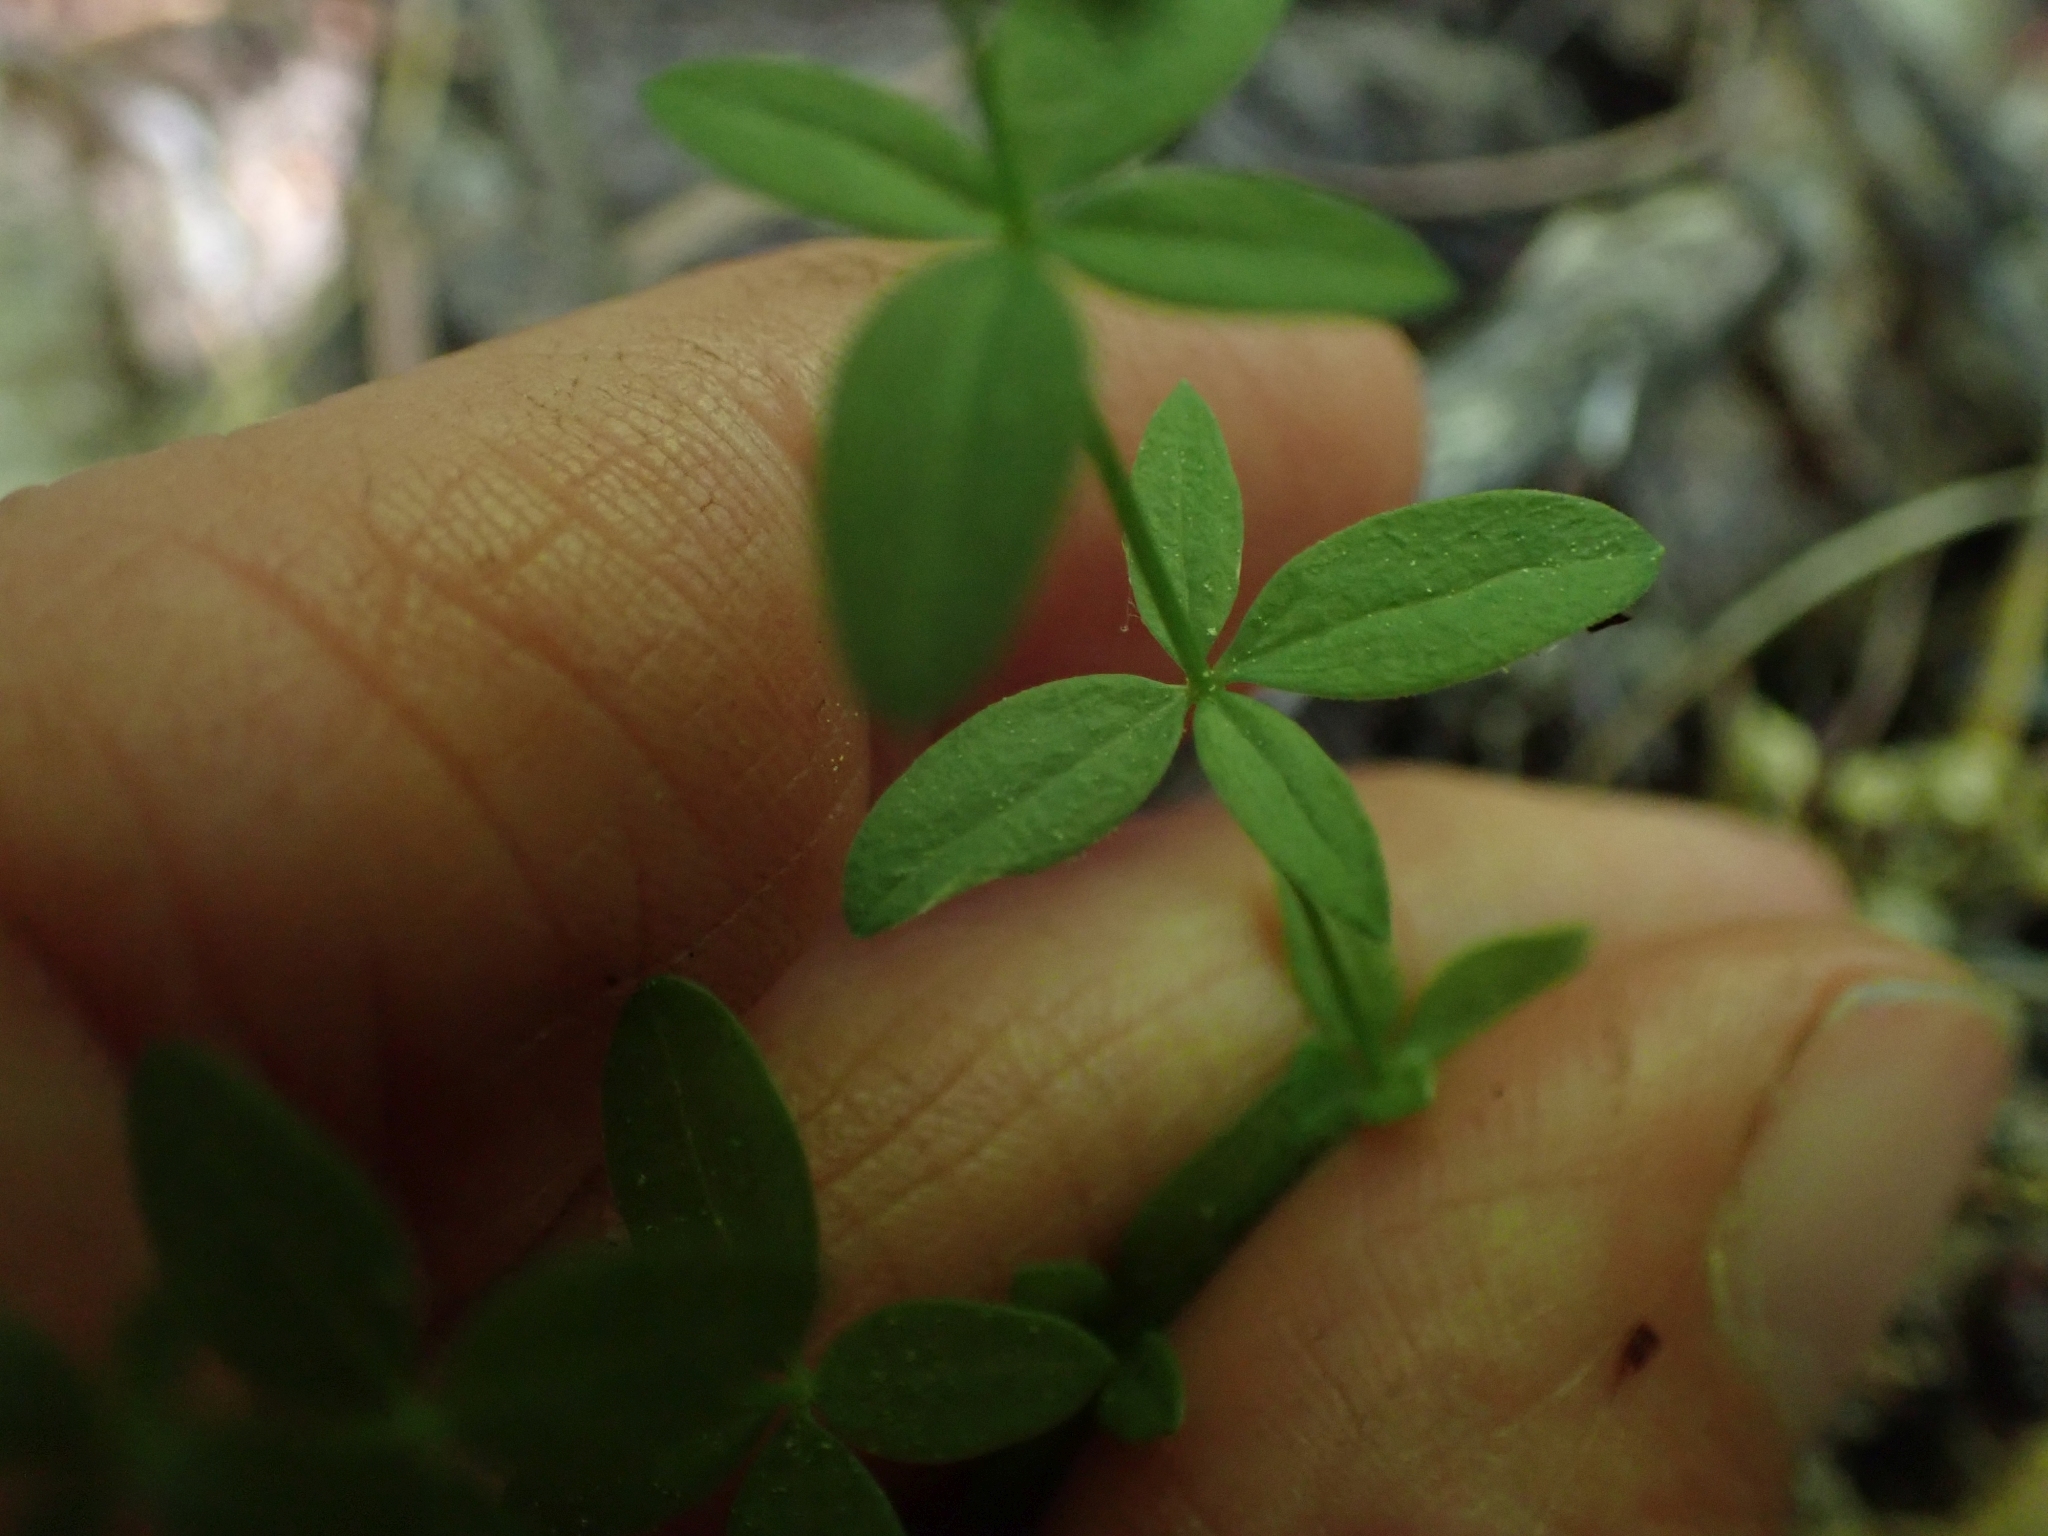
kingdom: Plantae
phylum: Tracheophyta
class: Magnoliopsida
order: Gentianales
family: Rubiaceae
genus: Galium
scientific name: Galium boreale
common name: Northern bedstraw
